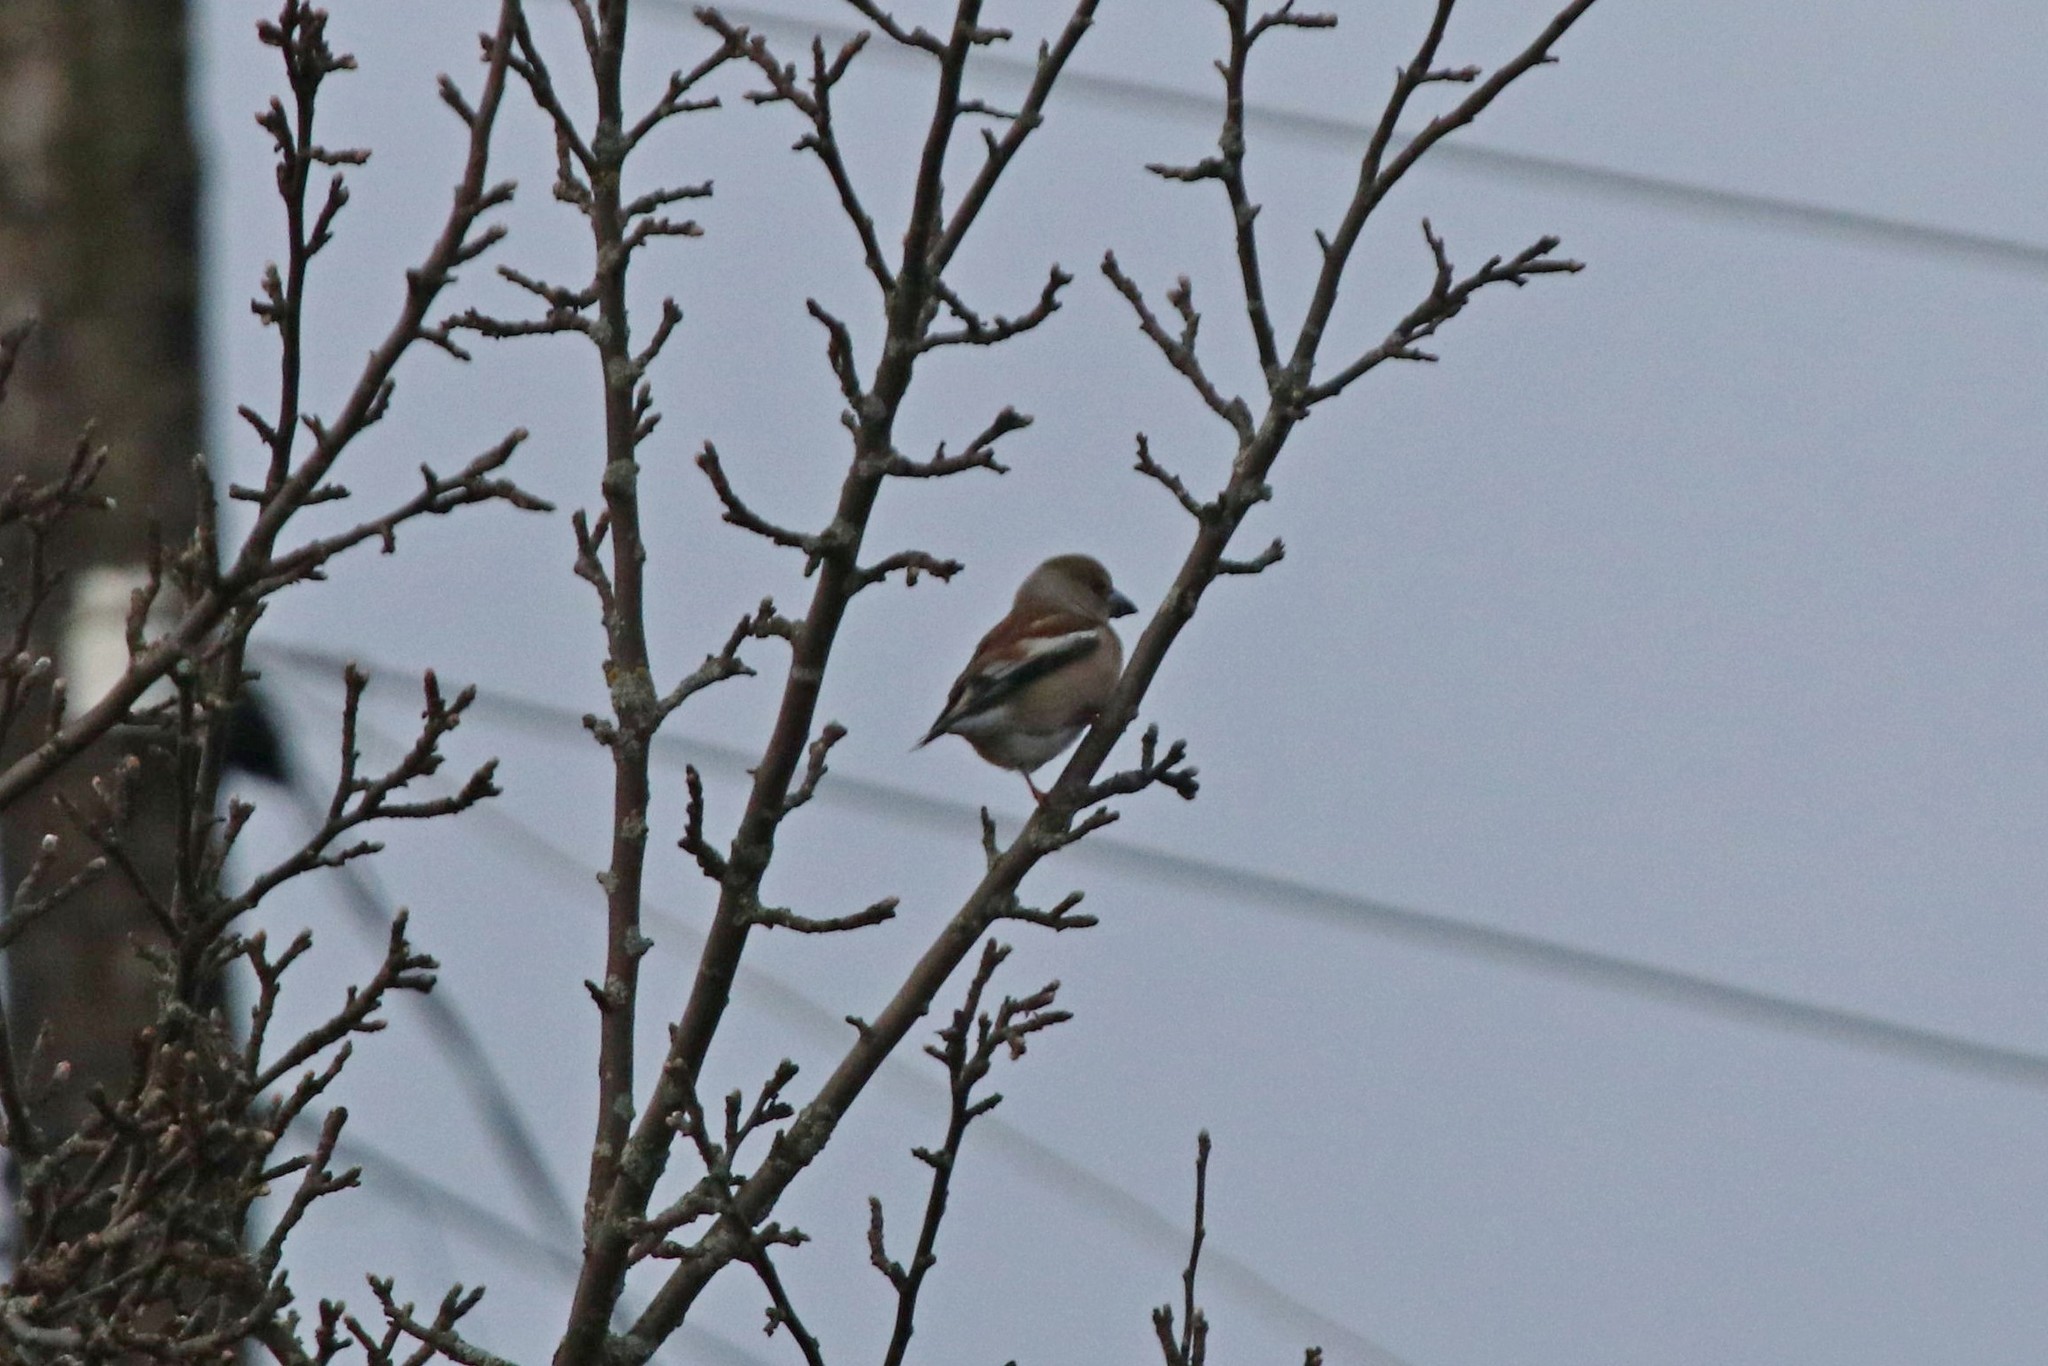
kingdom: Animalia
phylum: Chordata
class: Aves
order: Passeriformes
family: Fringillidae
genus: Coccothraustes
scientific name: Coccothraustes coccothraustes
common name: Hawfinch
